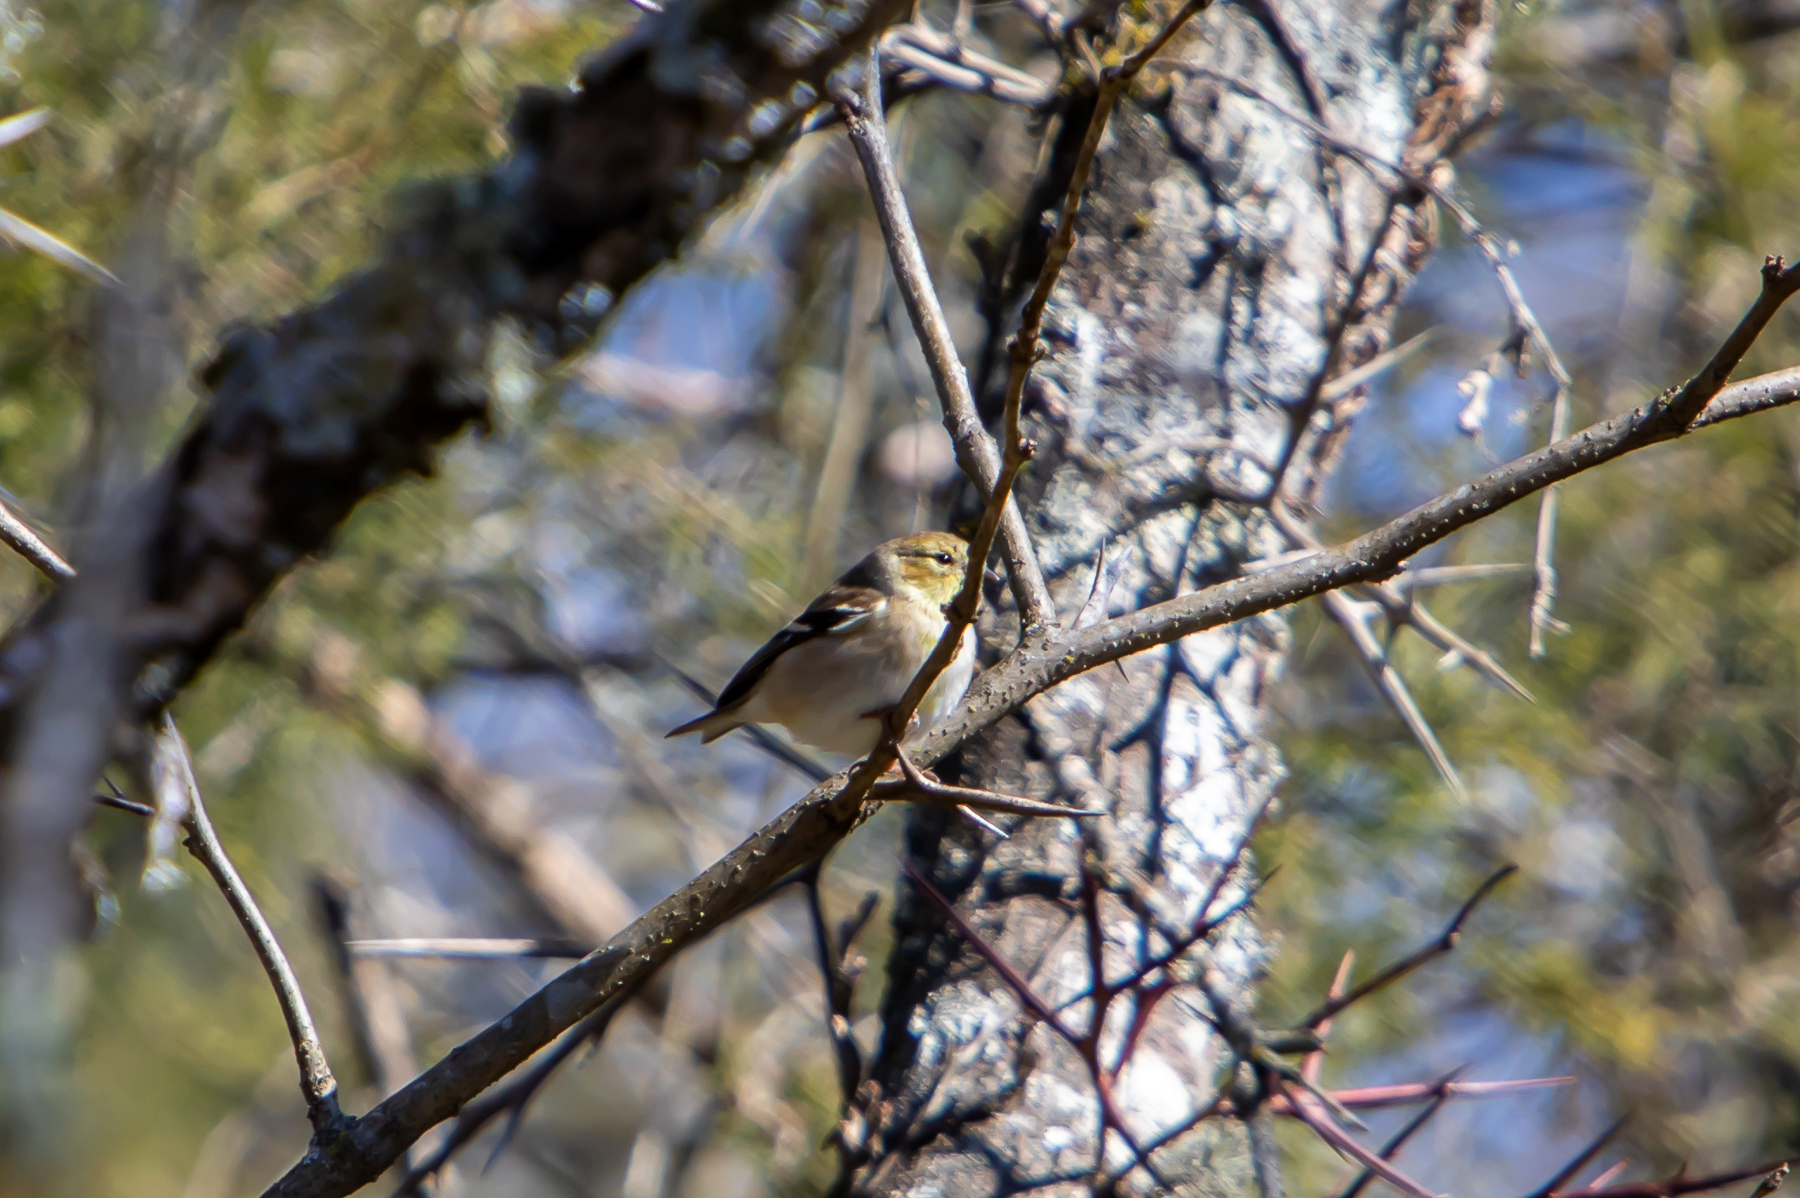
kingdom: Animalia
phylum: Chordata
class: Aves
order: Passeriformes
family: Fringillidae
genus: Spinus
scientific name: Spinus tristis
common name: American goldfinch
